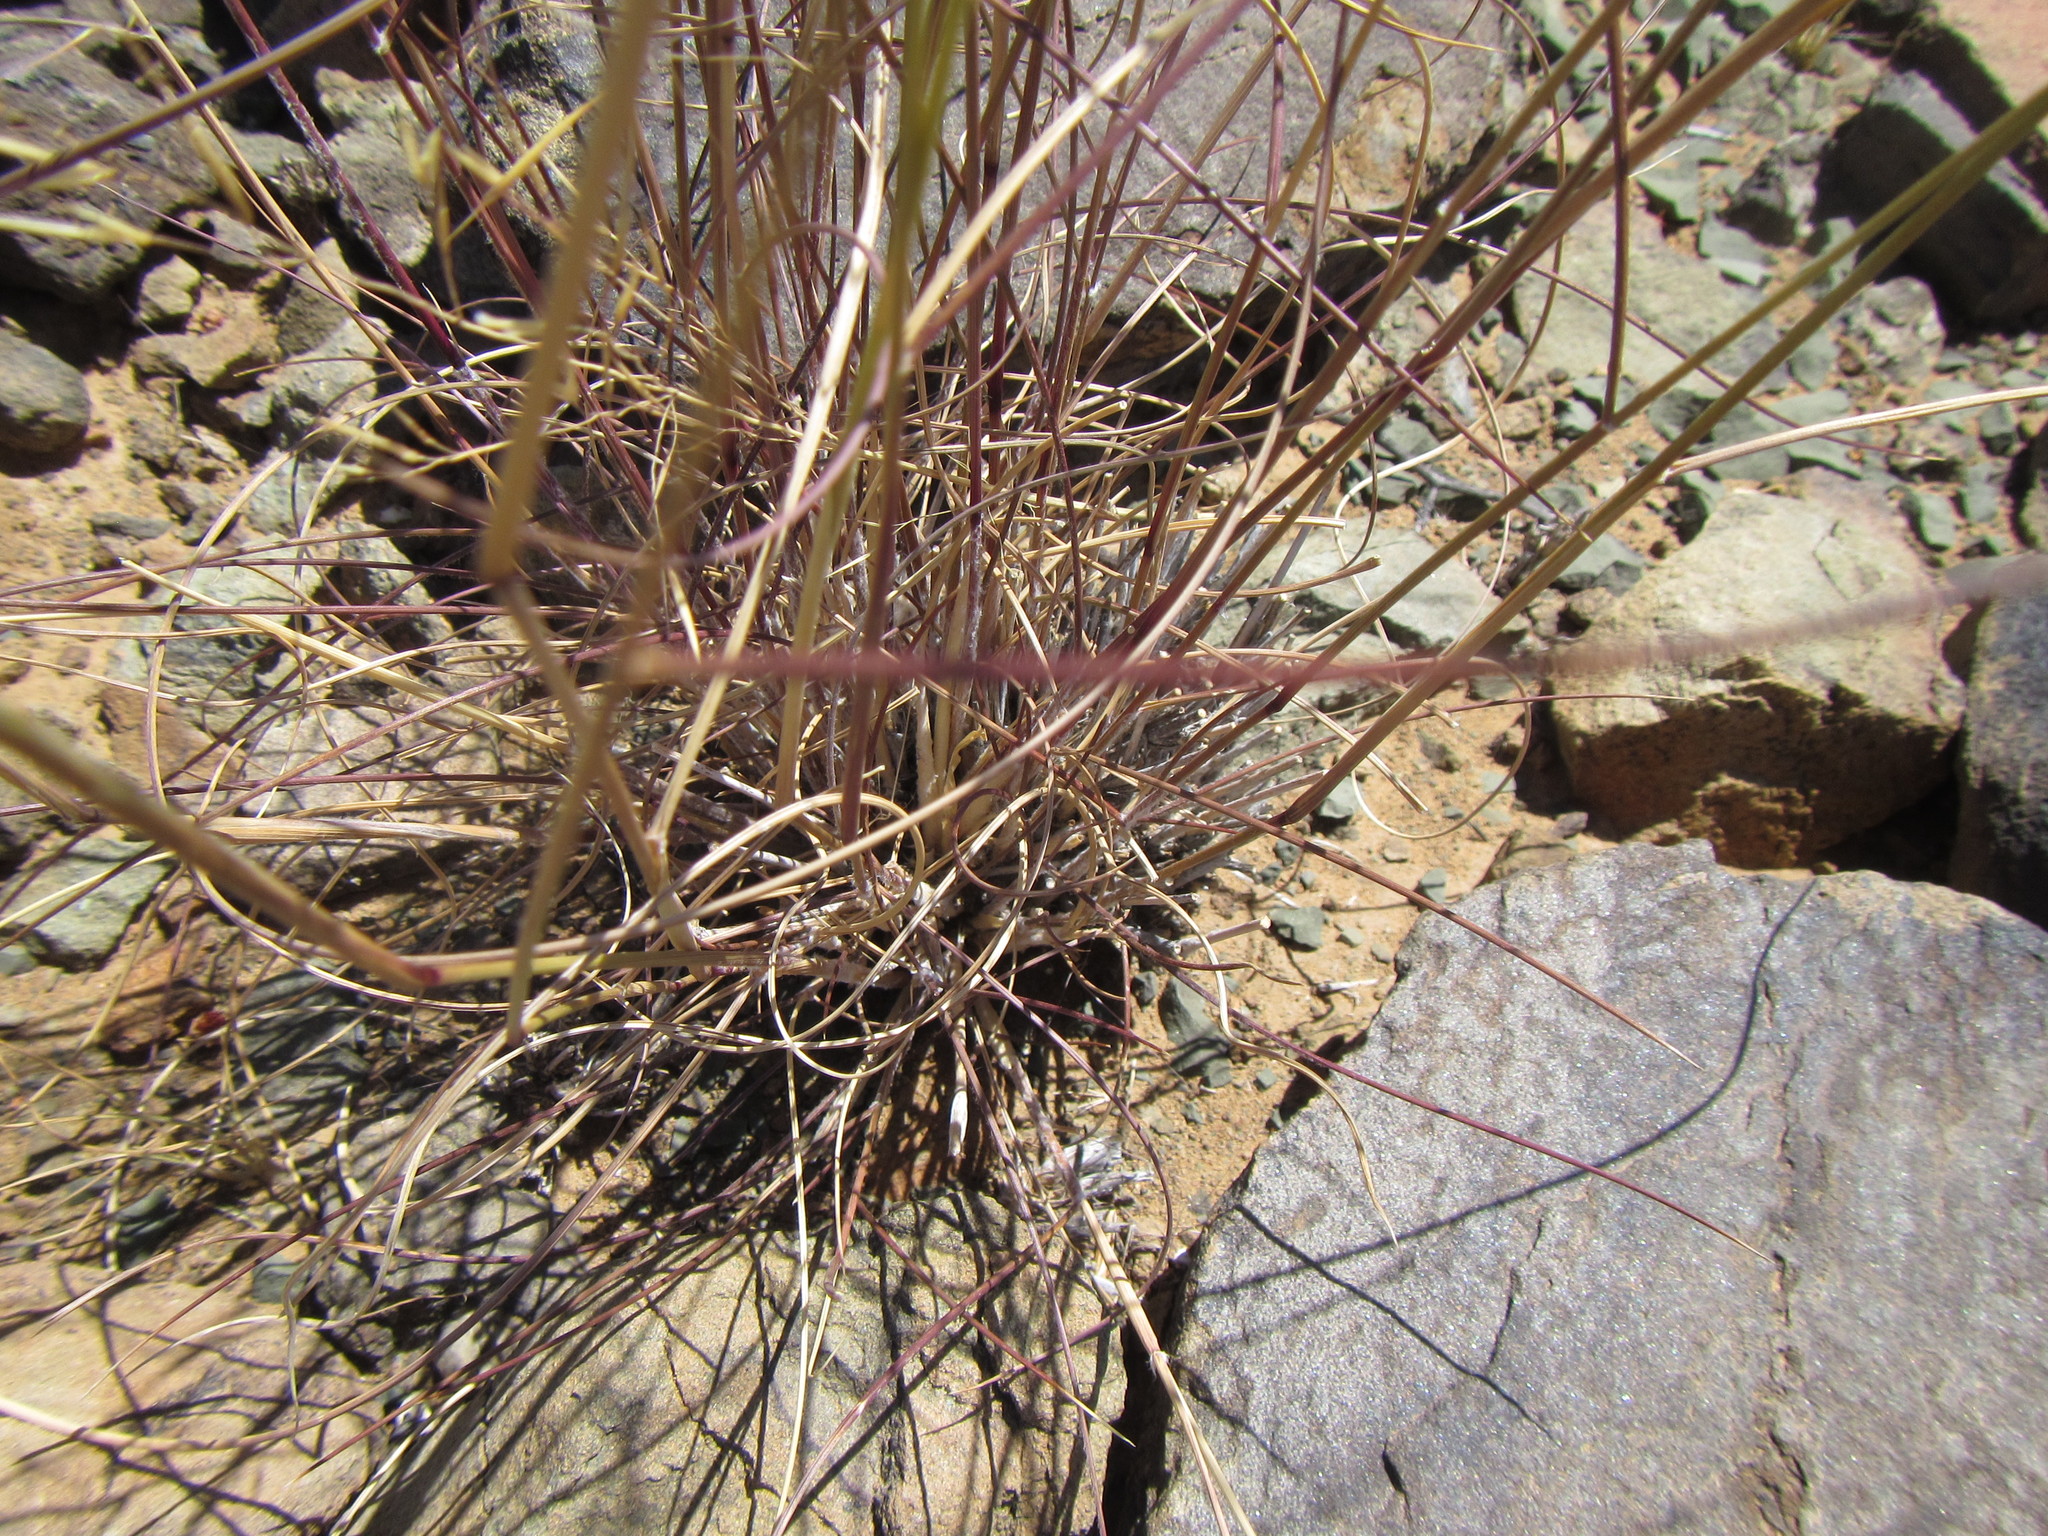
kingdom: Plantae
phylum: Tracheophyta
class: Liliopsida
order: Poales
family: Poaceae
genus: Aristida
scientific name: Aristida diffusa
